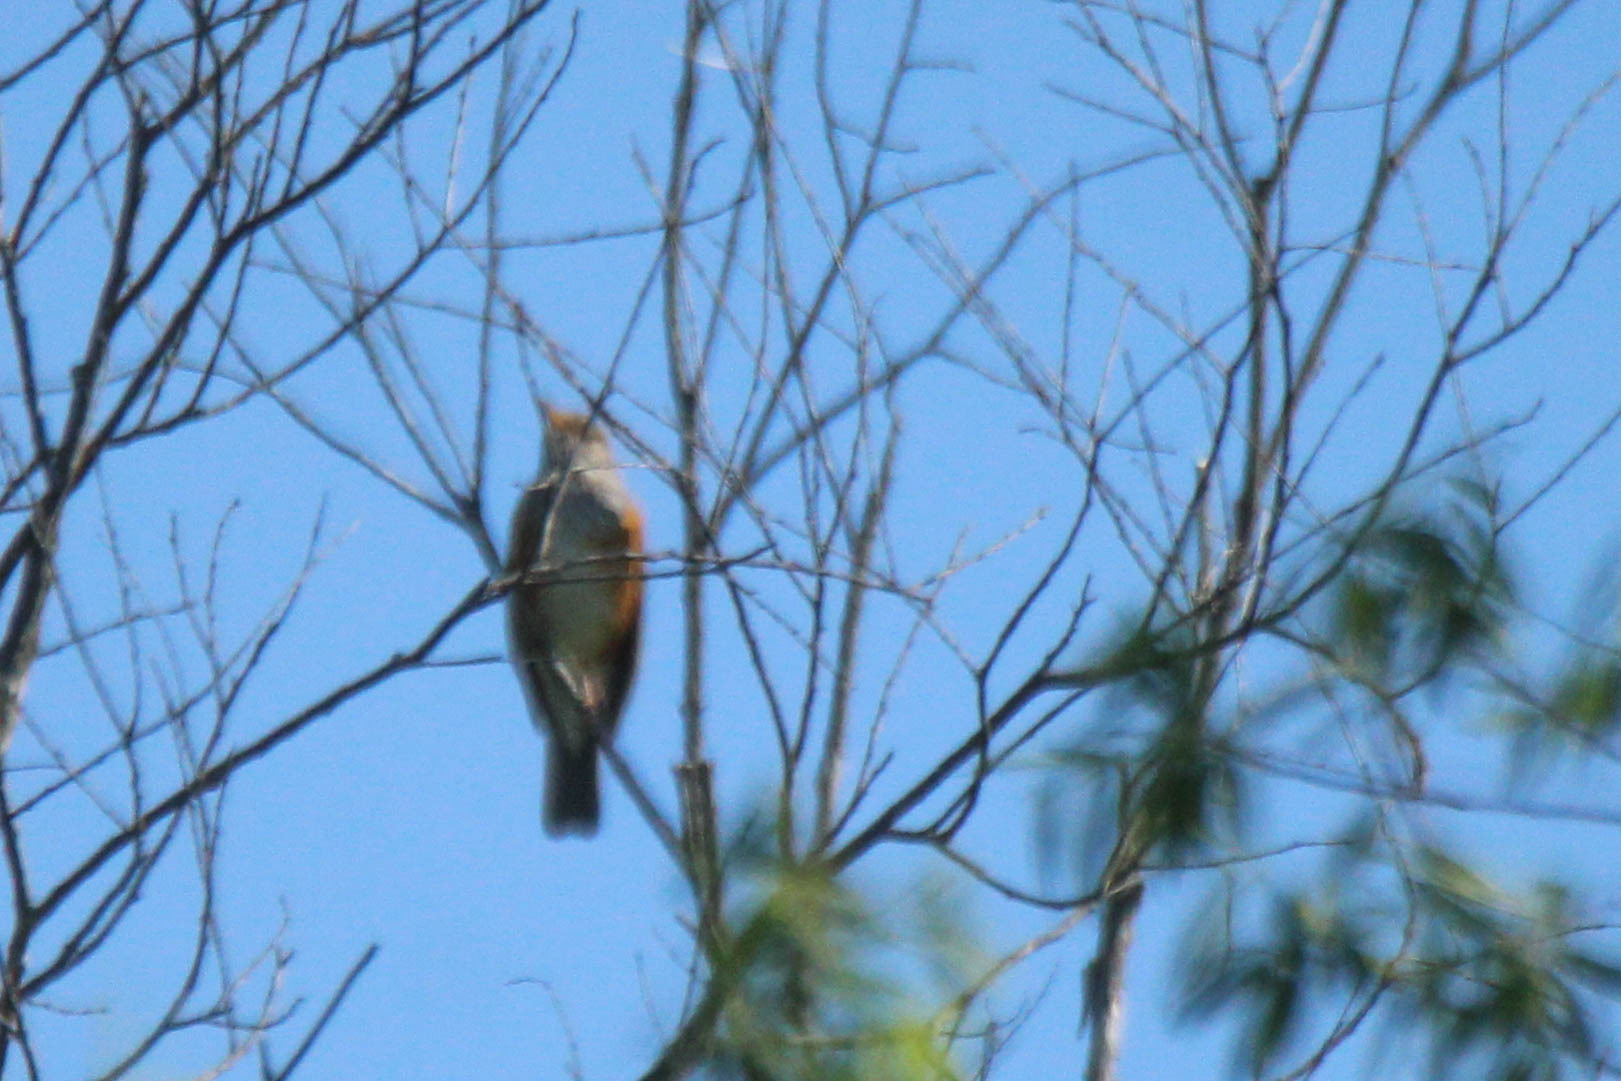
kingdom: Animalia
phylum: Chordata
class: Aves
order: Passeriformes
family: Turdidae
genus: Turdus
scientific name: Turdus hortulorum
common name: Grey-backed thrush
